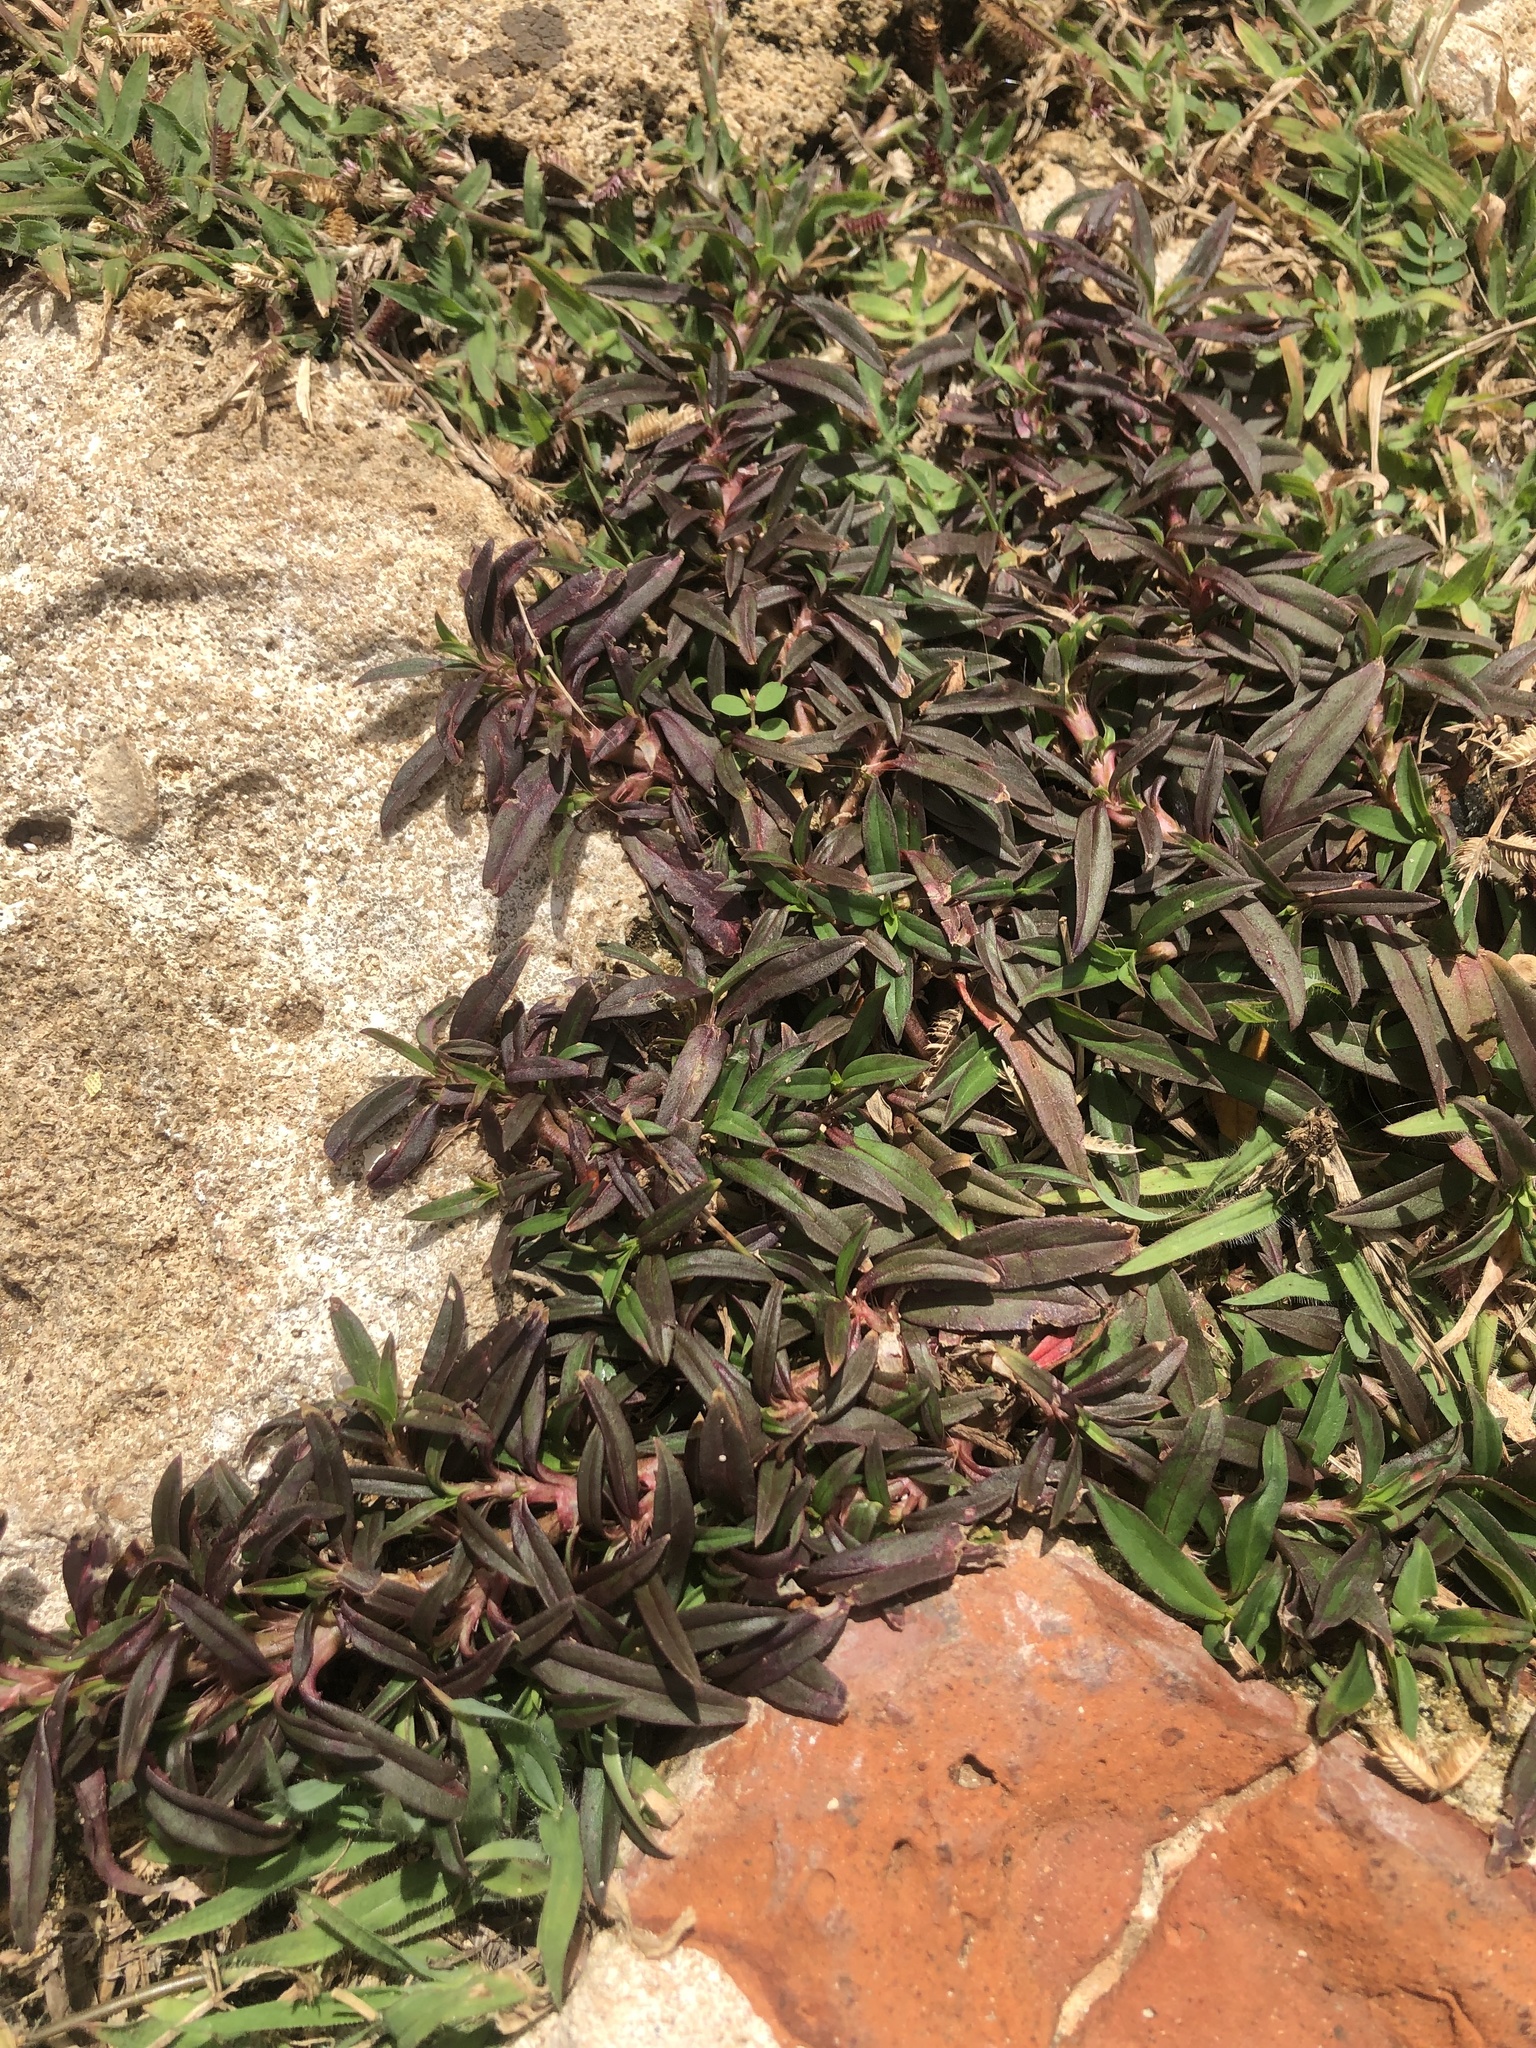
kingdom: Plantae
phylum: Tracheophyta
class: Magnoliopsida
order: Gentianales
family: Rubiaceae
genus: Oldenlandia
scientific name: Oldenlandia corymbosa
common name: Flat-top mille graines
